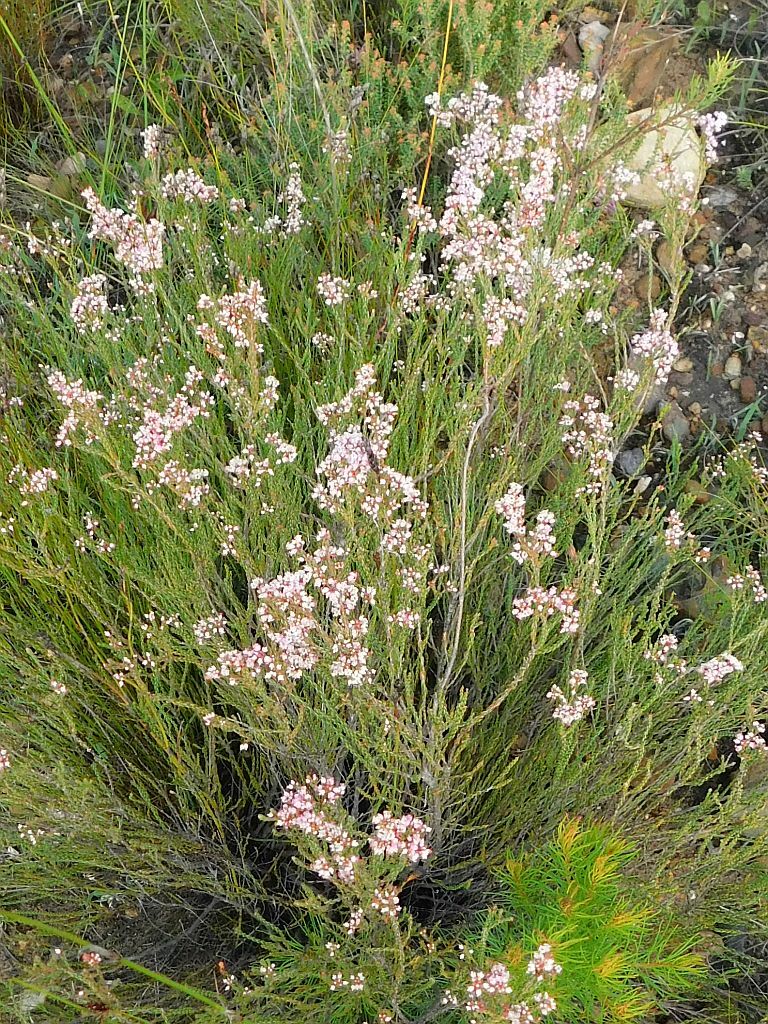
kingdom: Plantae
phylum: Tracheophyta
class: Magnoliopsida
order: Ericales
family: Ericaceae
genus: Erica
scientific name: Erica articularis
